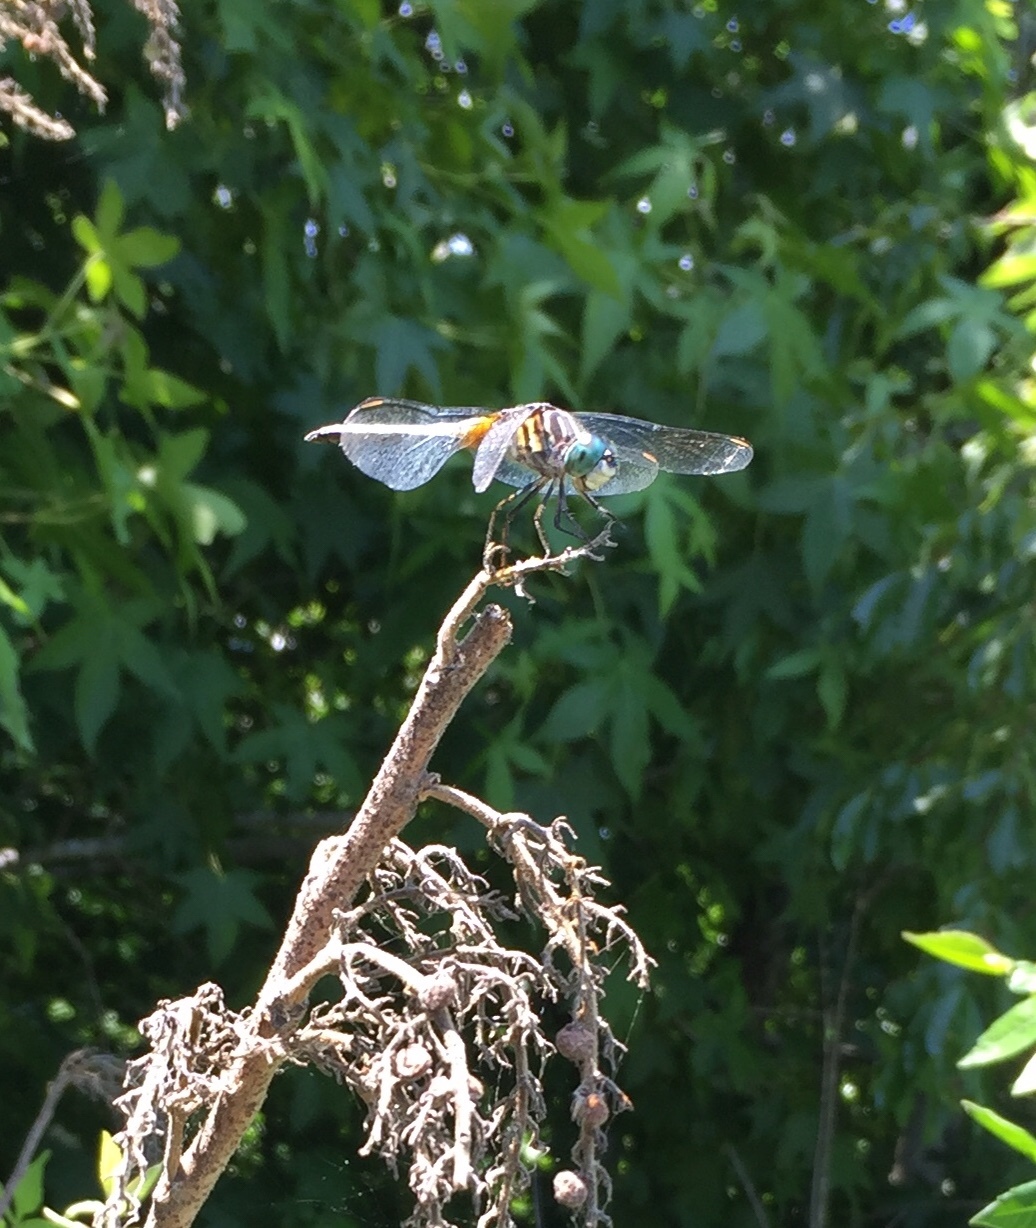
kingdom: Animalia
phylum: Arthropoda
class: Insecta
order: Odonata
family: Libellulidae
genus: Pachydiplax
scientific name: Pachydiplax longipennis
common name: Blue dasher
